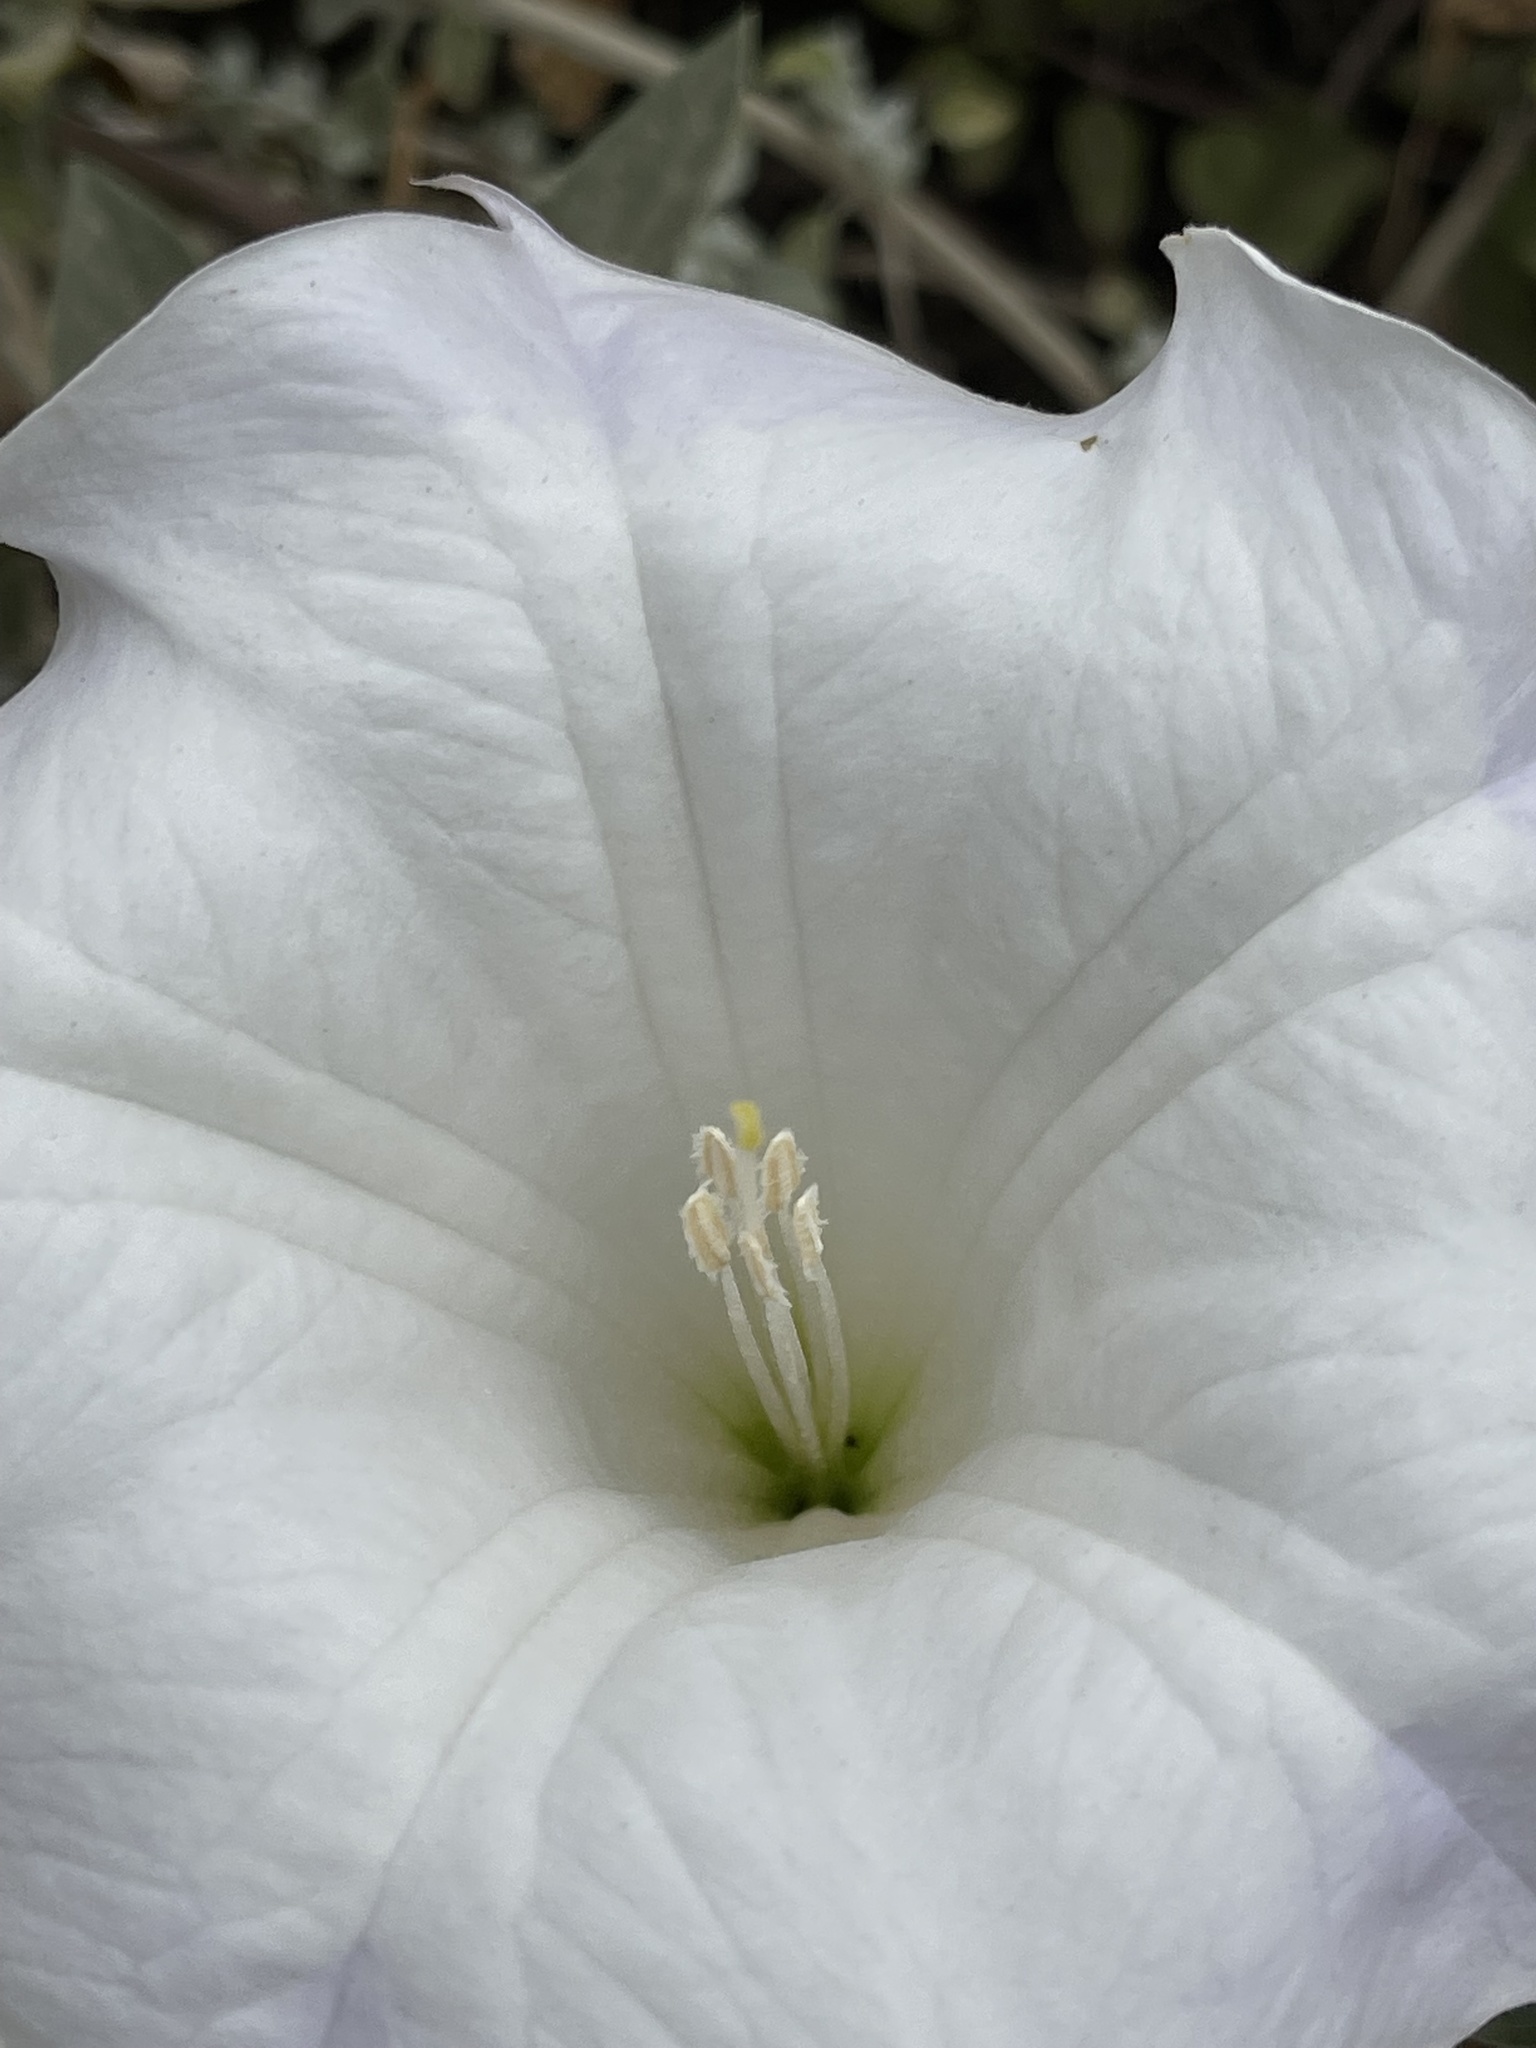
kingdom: Plantae
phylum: Tracheophyta
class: Magnoliopsida
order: Solanales
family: Solanaceae
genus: Datura
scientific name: Datura wrightii
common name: Sacred thorn-apple
